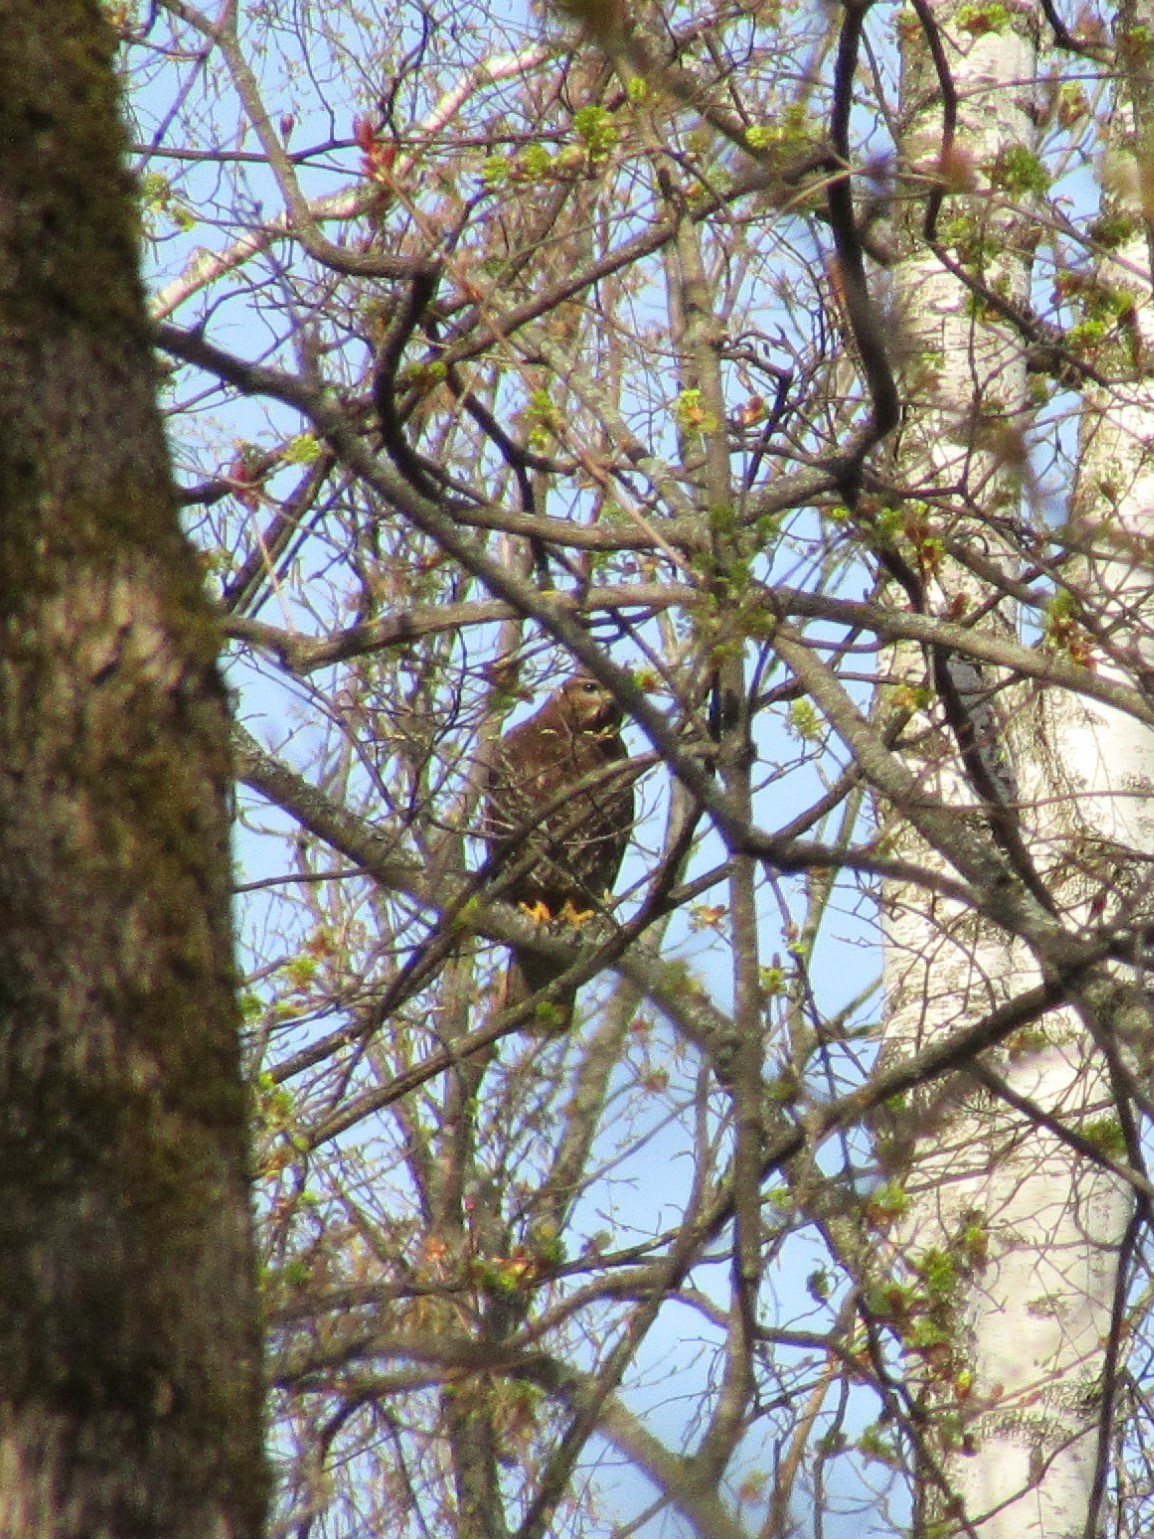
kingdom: Animalia
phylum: Chordata
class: Aves
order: Accipitriformes
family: Accipitridae
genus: Buteo
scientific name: Buteo buteo
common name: Common buzzard
